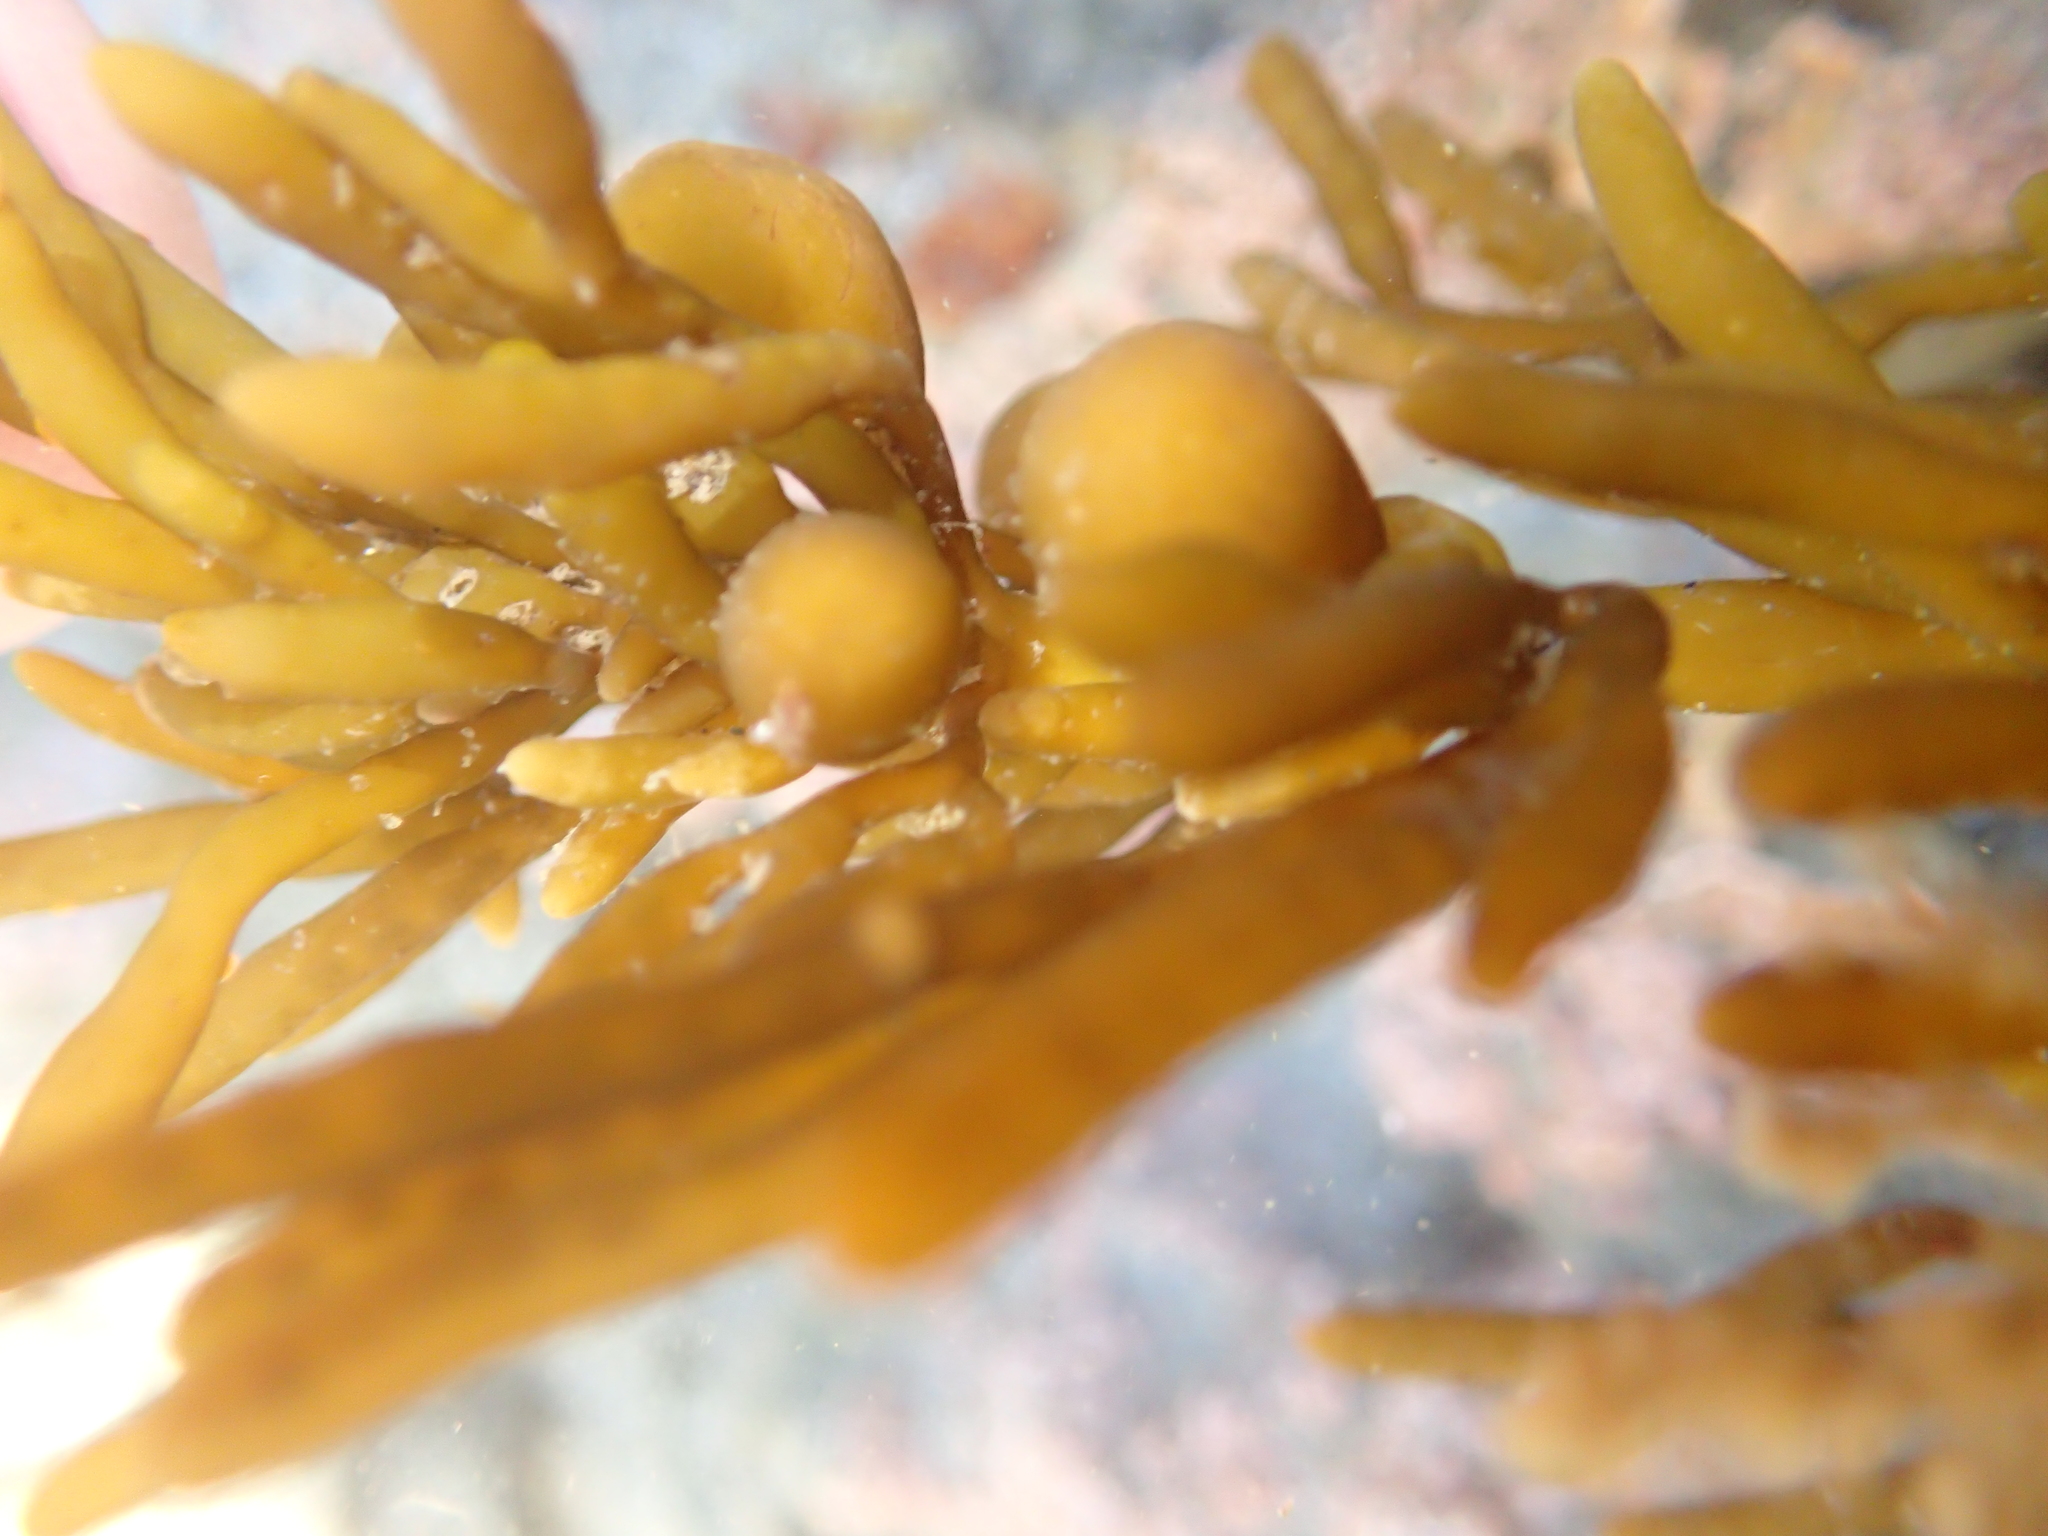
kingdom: Chromista
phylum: Ochrophyta
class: Phaeophyceae
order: Fucales
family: Sargassaceae
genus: Cystophora
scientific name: Cystophora torulosa
